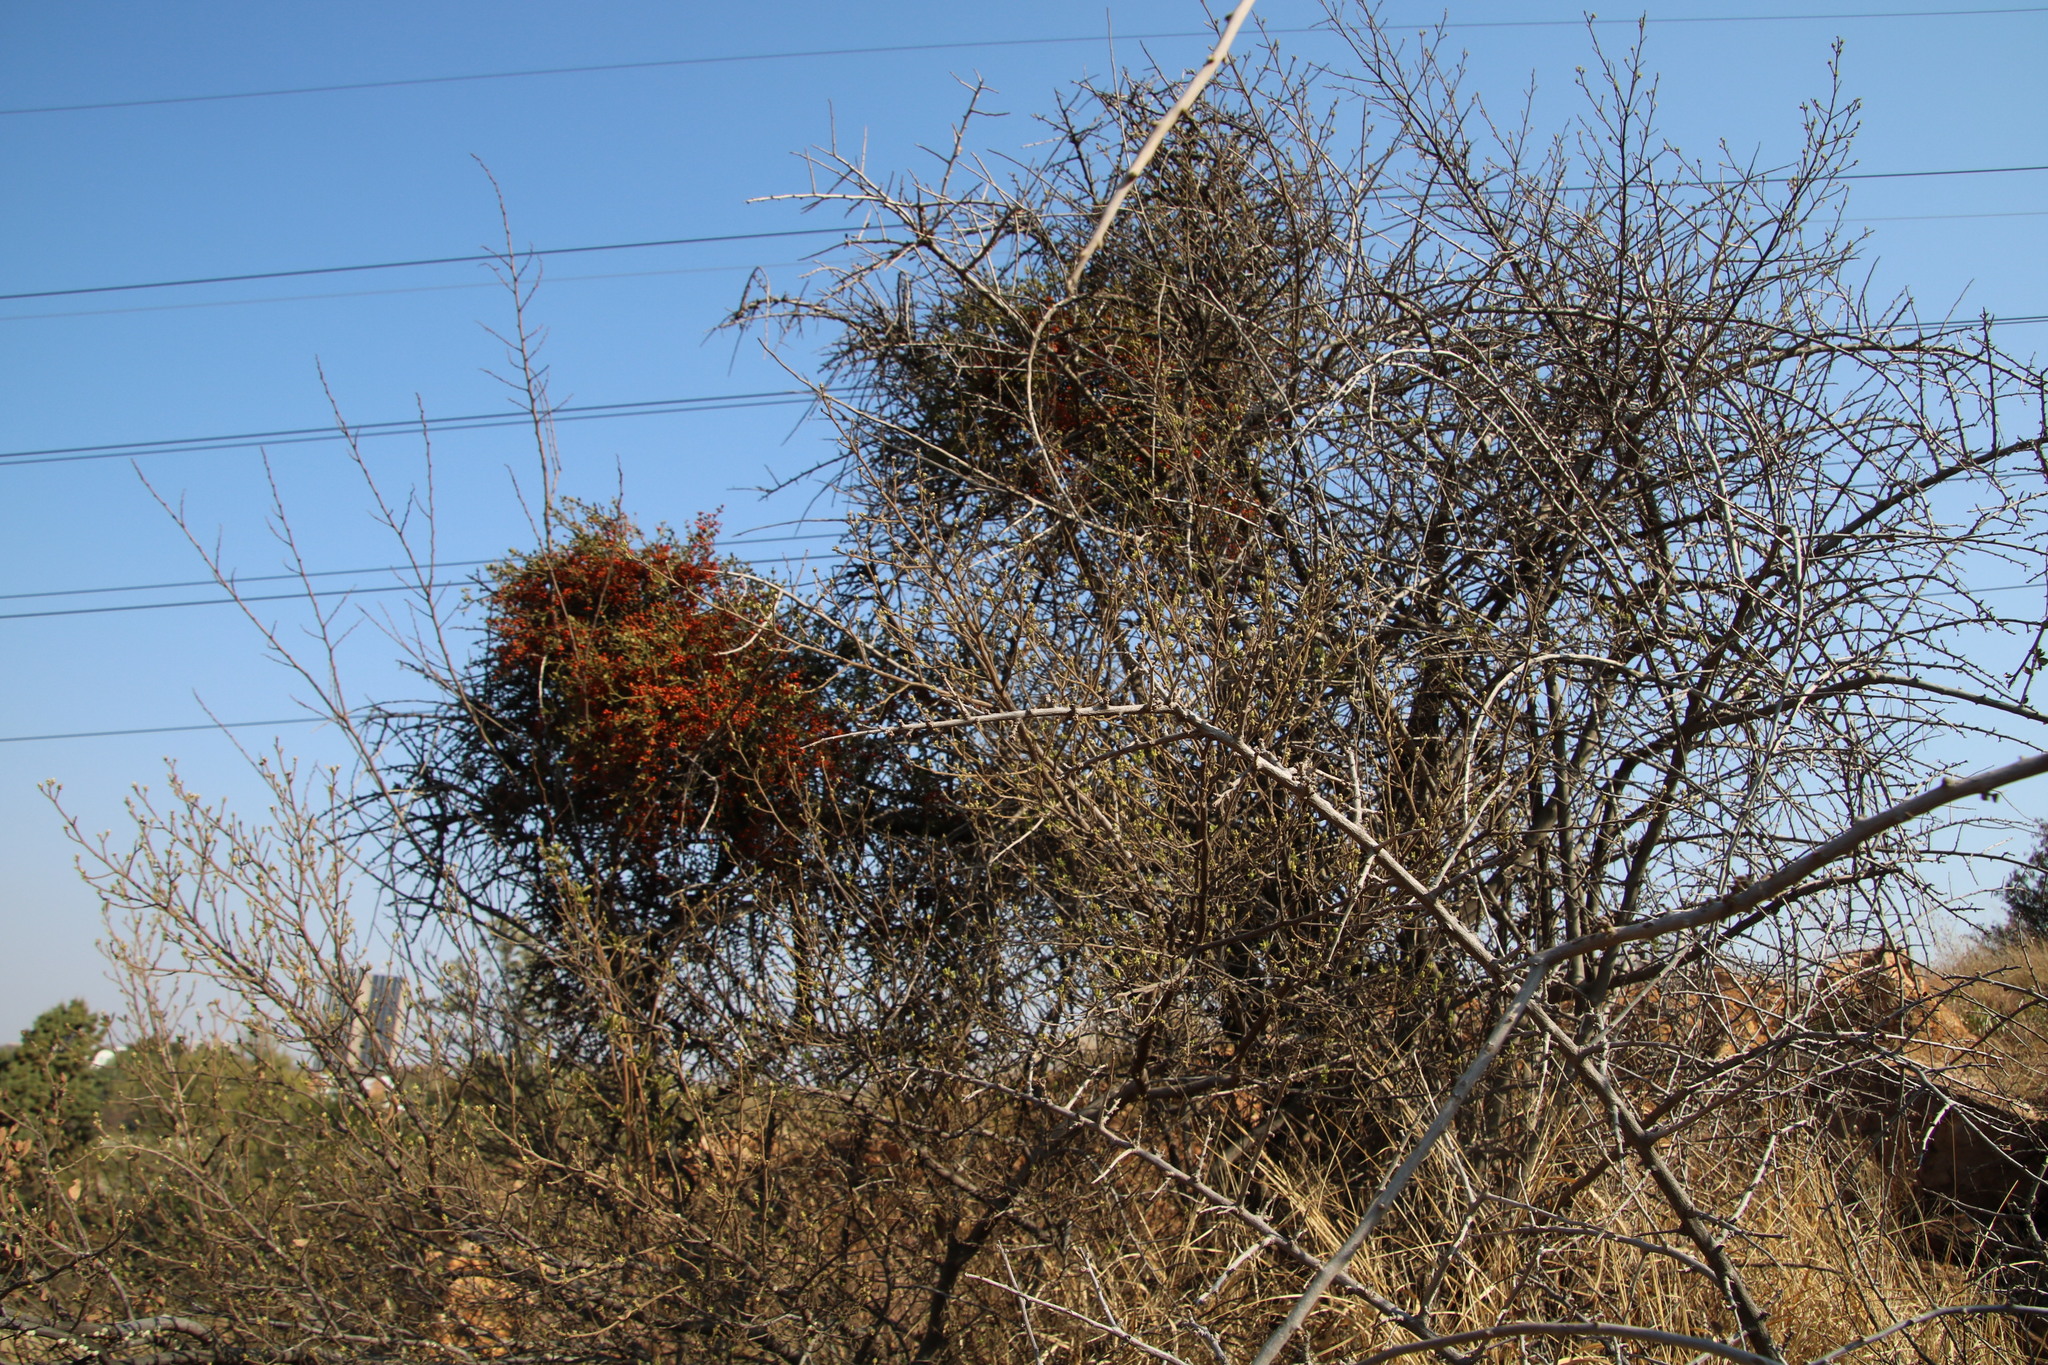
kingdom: Plantae
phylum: Tracheophyta
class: Magnoliopsida
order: Santalales
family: Viscaceae
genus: Viscum
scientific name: Viscum rotundifolium
